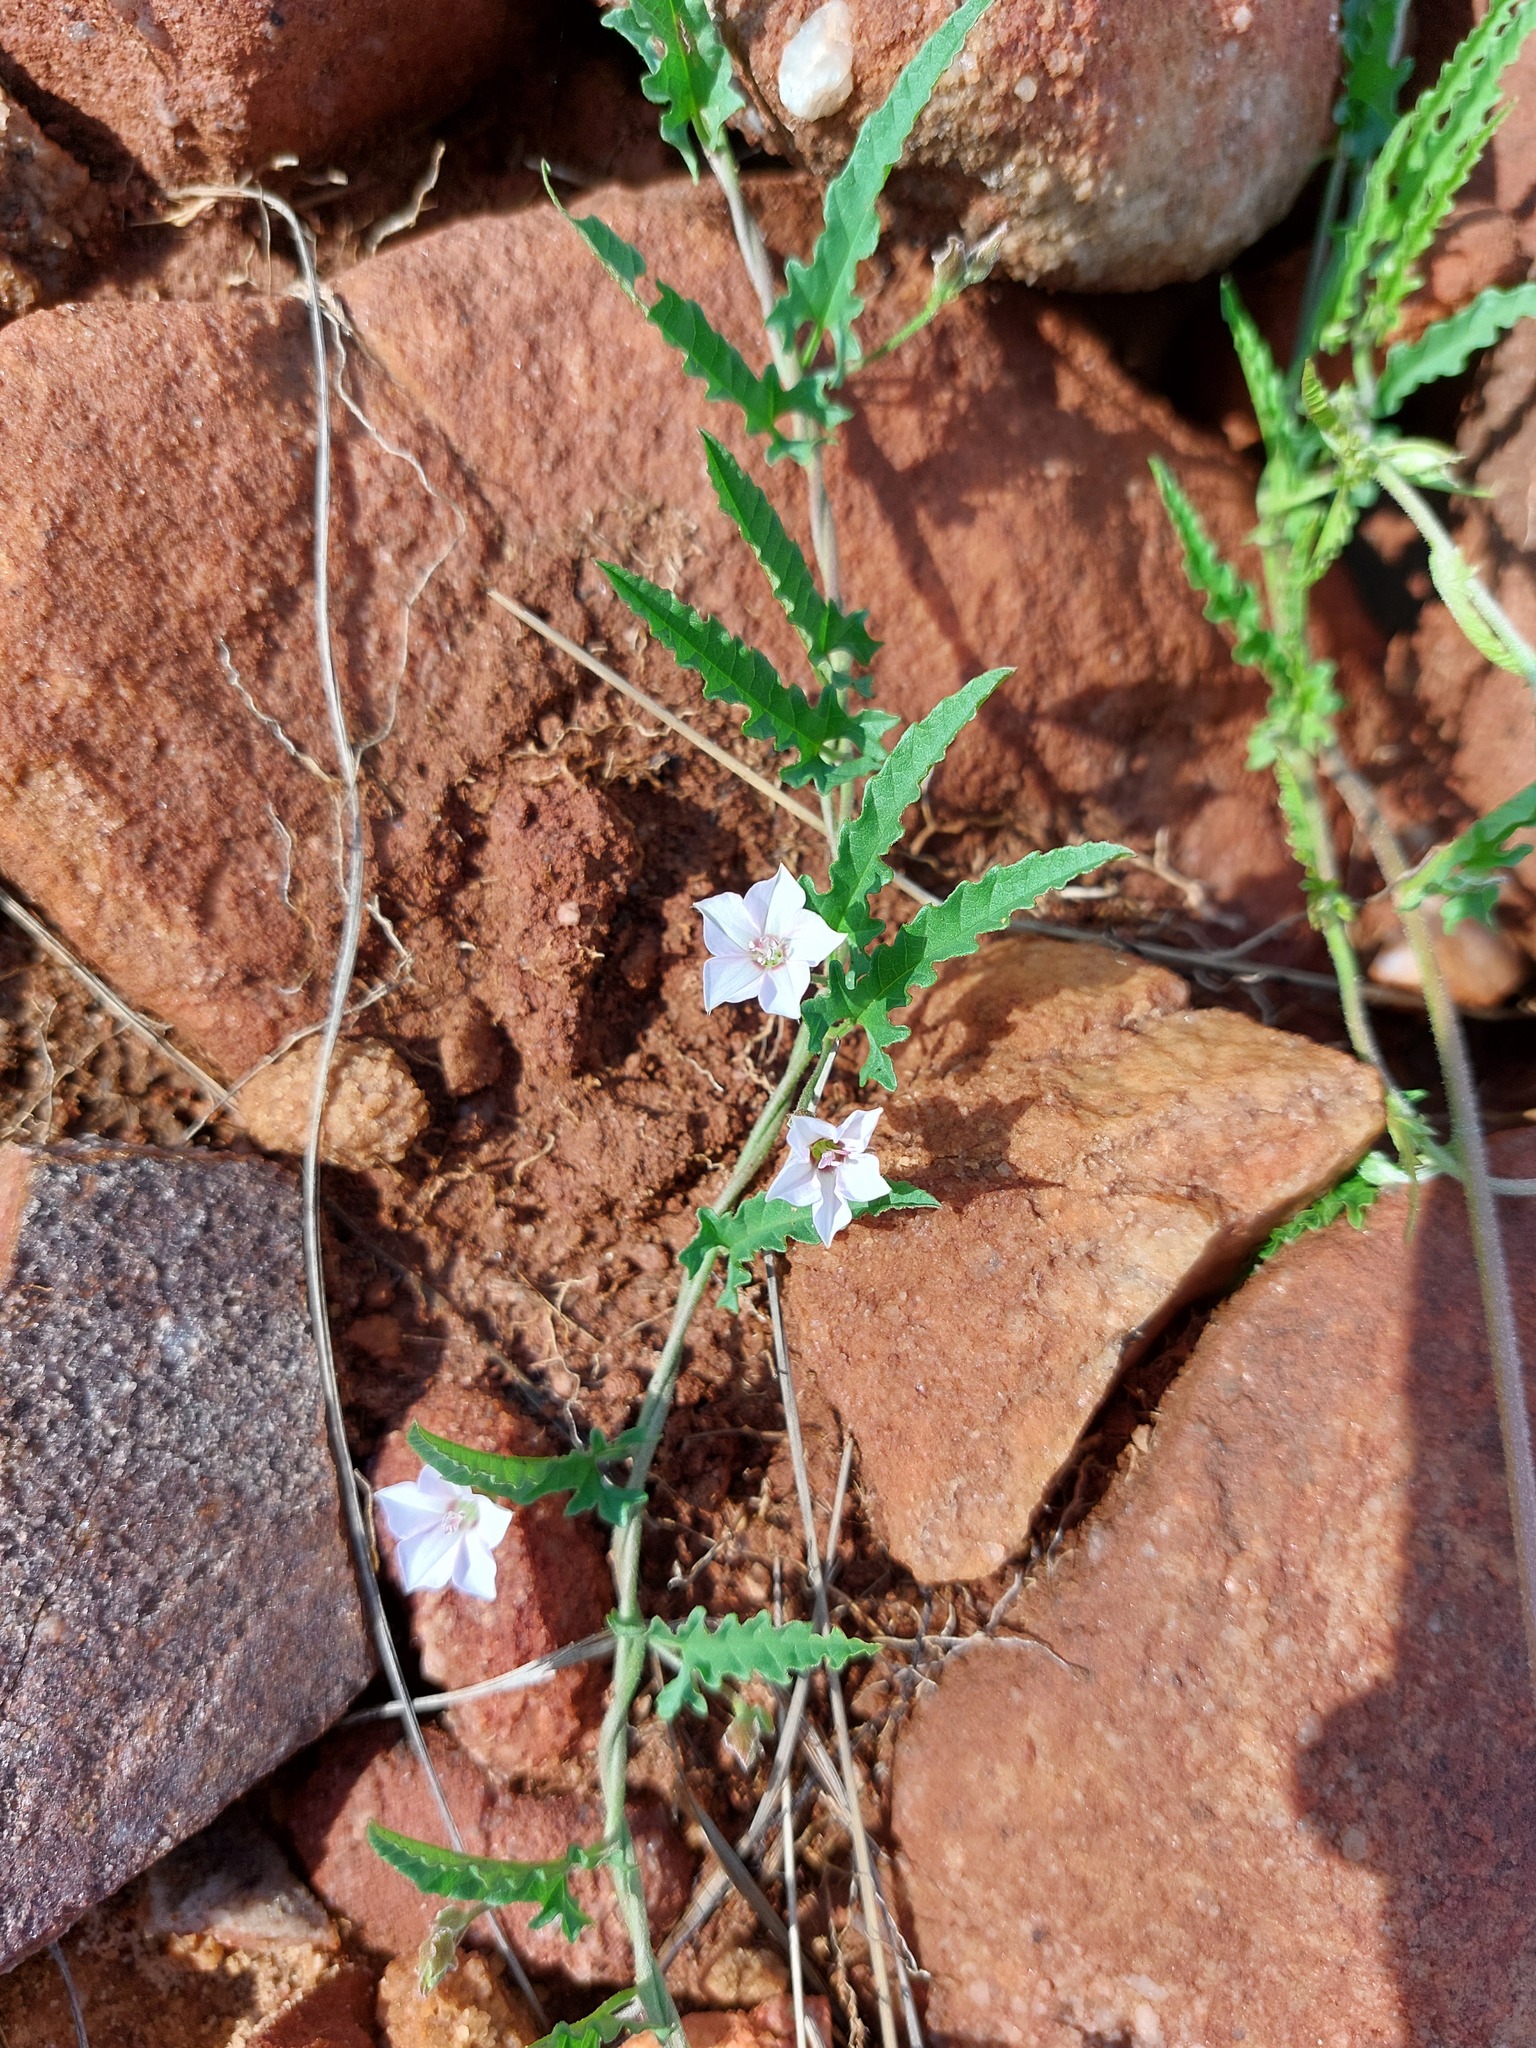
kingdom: Plantae
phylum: Tracheophyta
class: Magnoliopsida
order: Solanales
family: Convolvulaceae
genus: Convolvulus
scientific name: Convolvulus sagittatus
